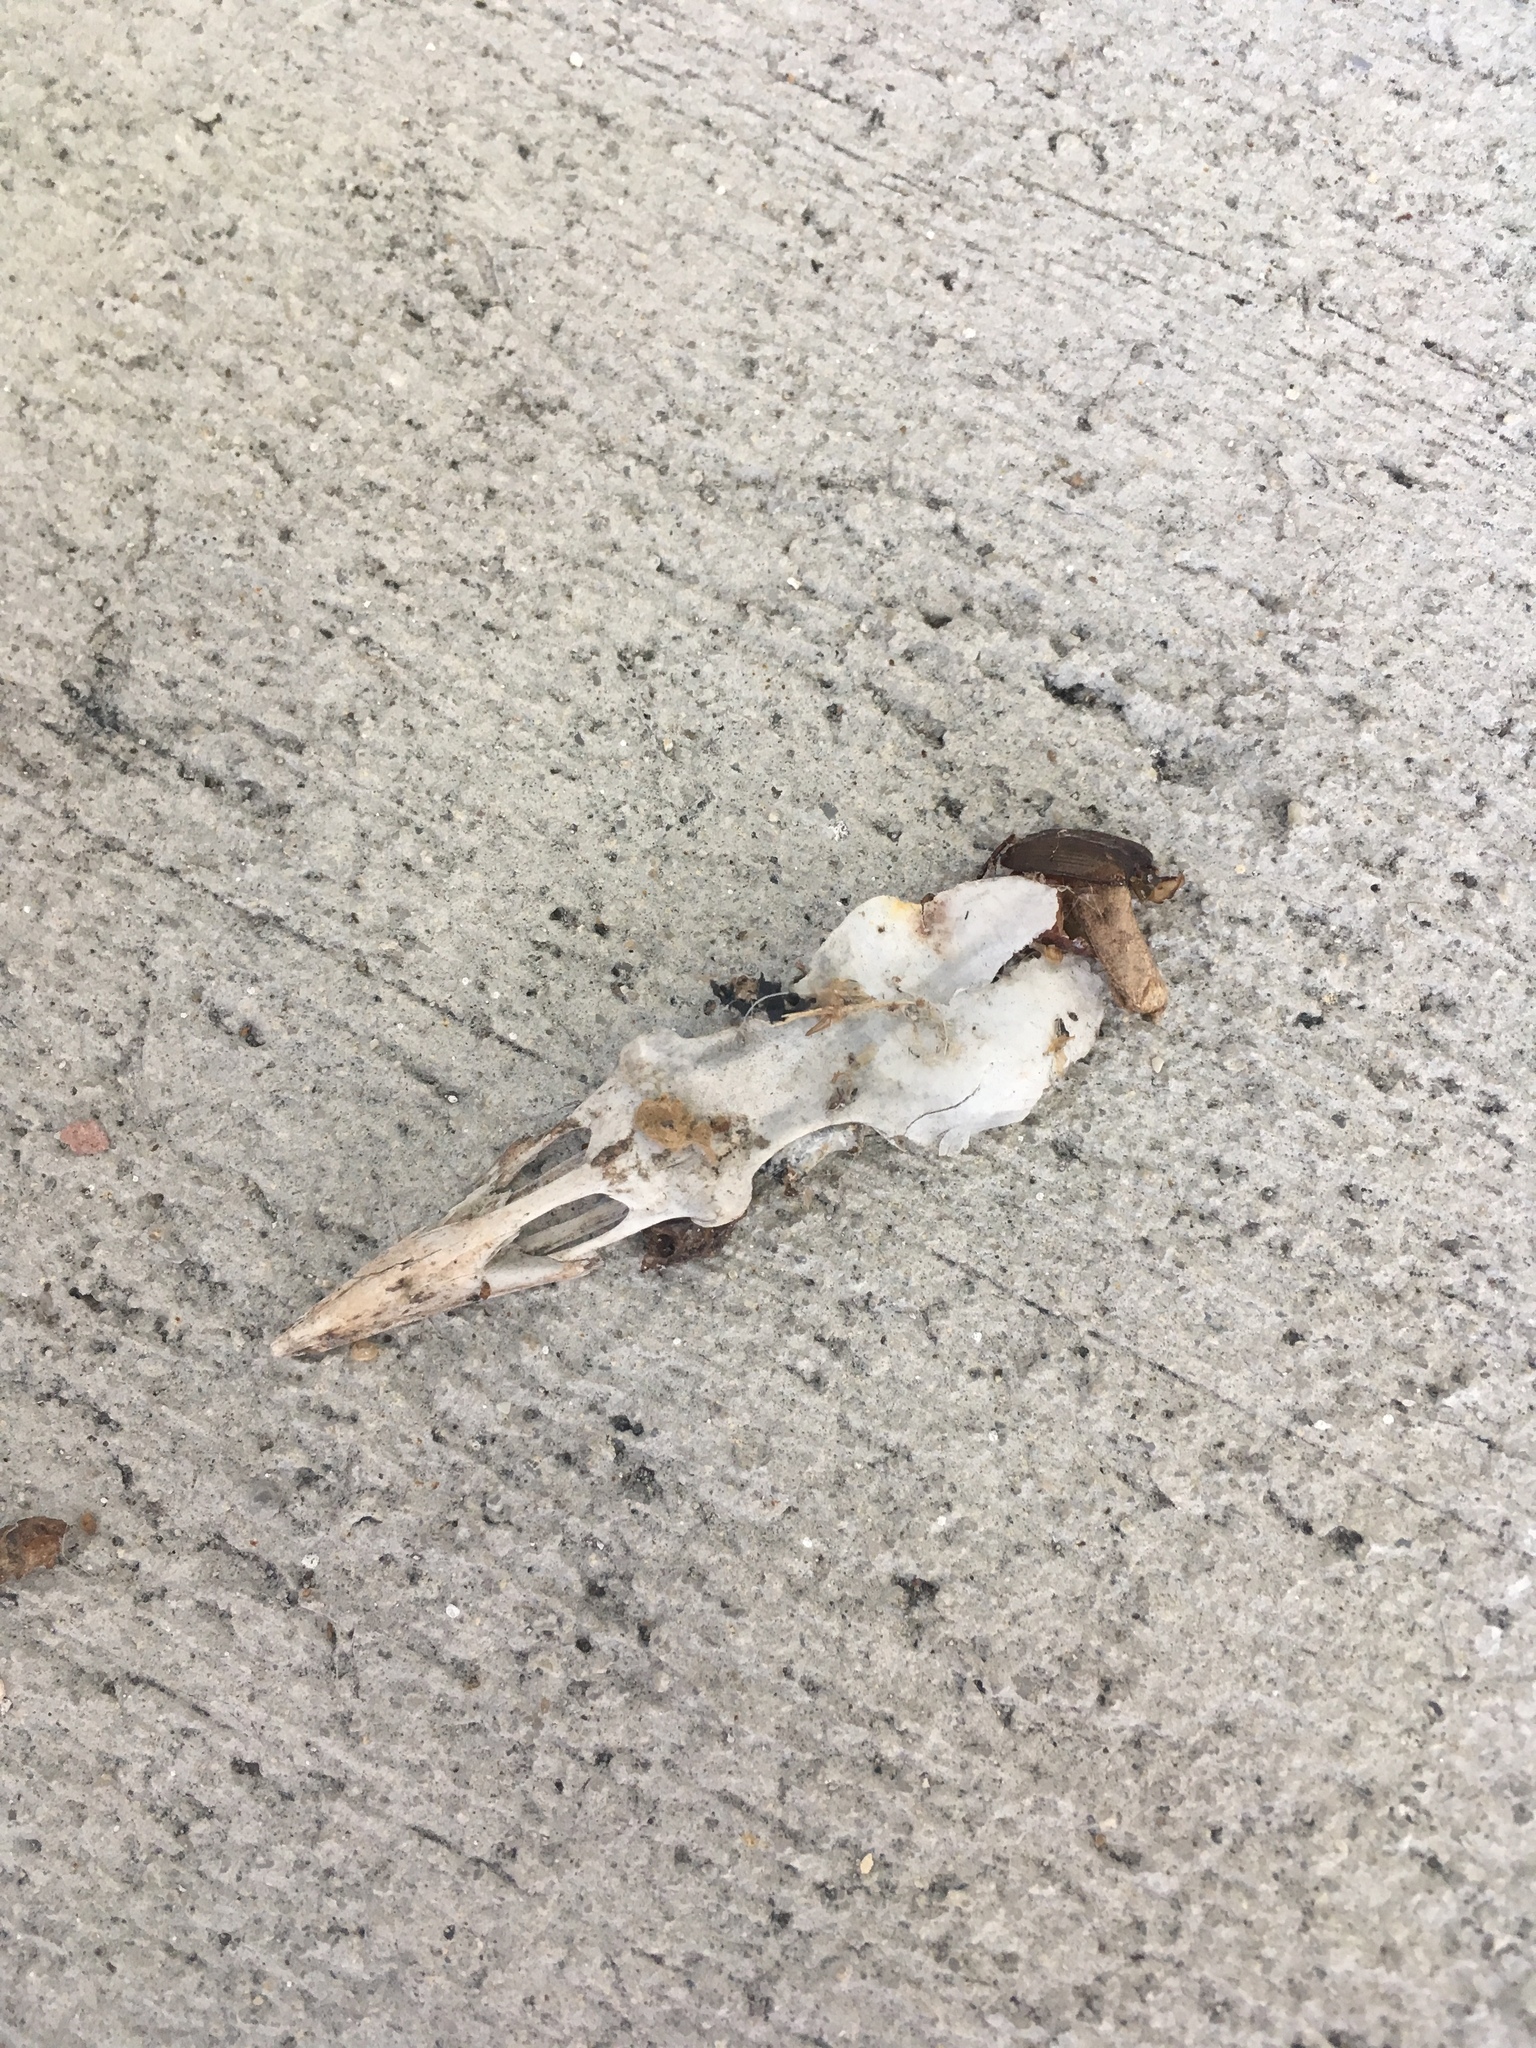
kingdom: Animalia
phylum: Chordata
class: Aves
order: Passeriformes
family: Mimidae
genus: Mimus
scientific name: Mimus polyglottos
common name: Northern mockingbird
